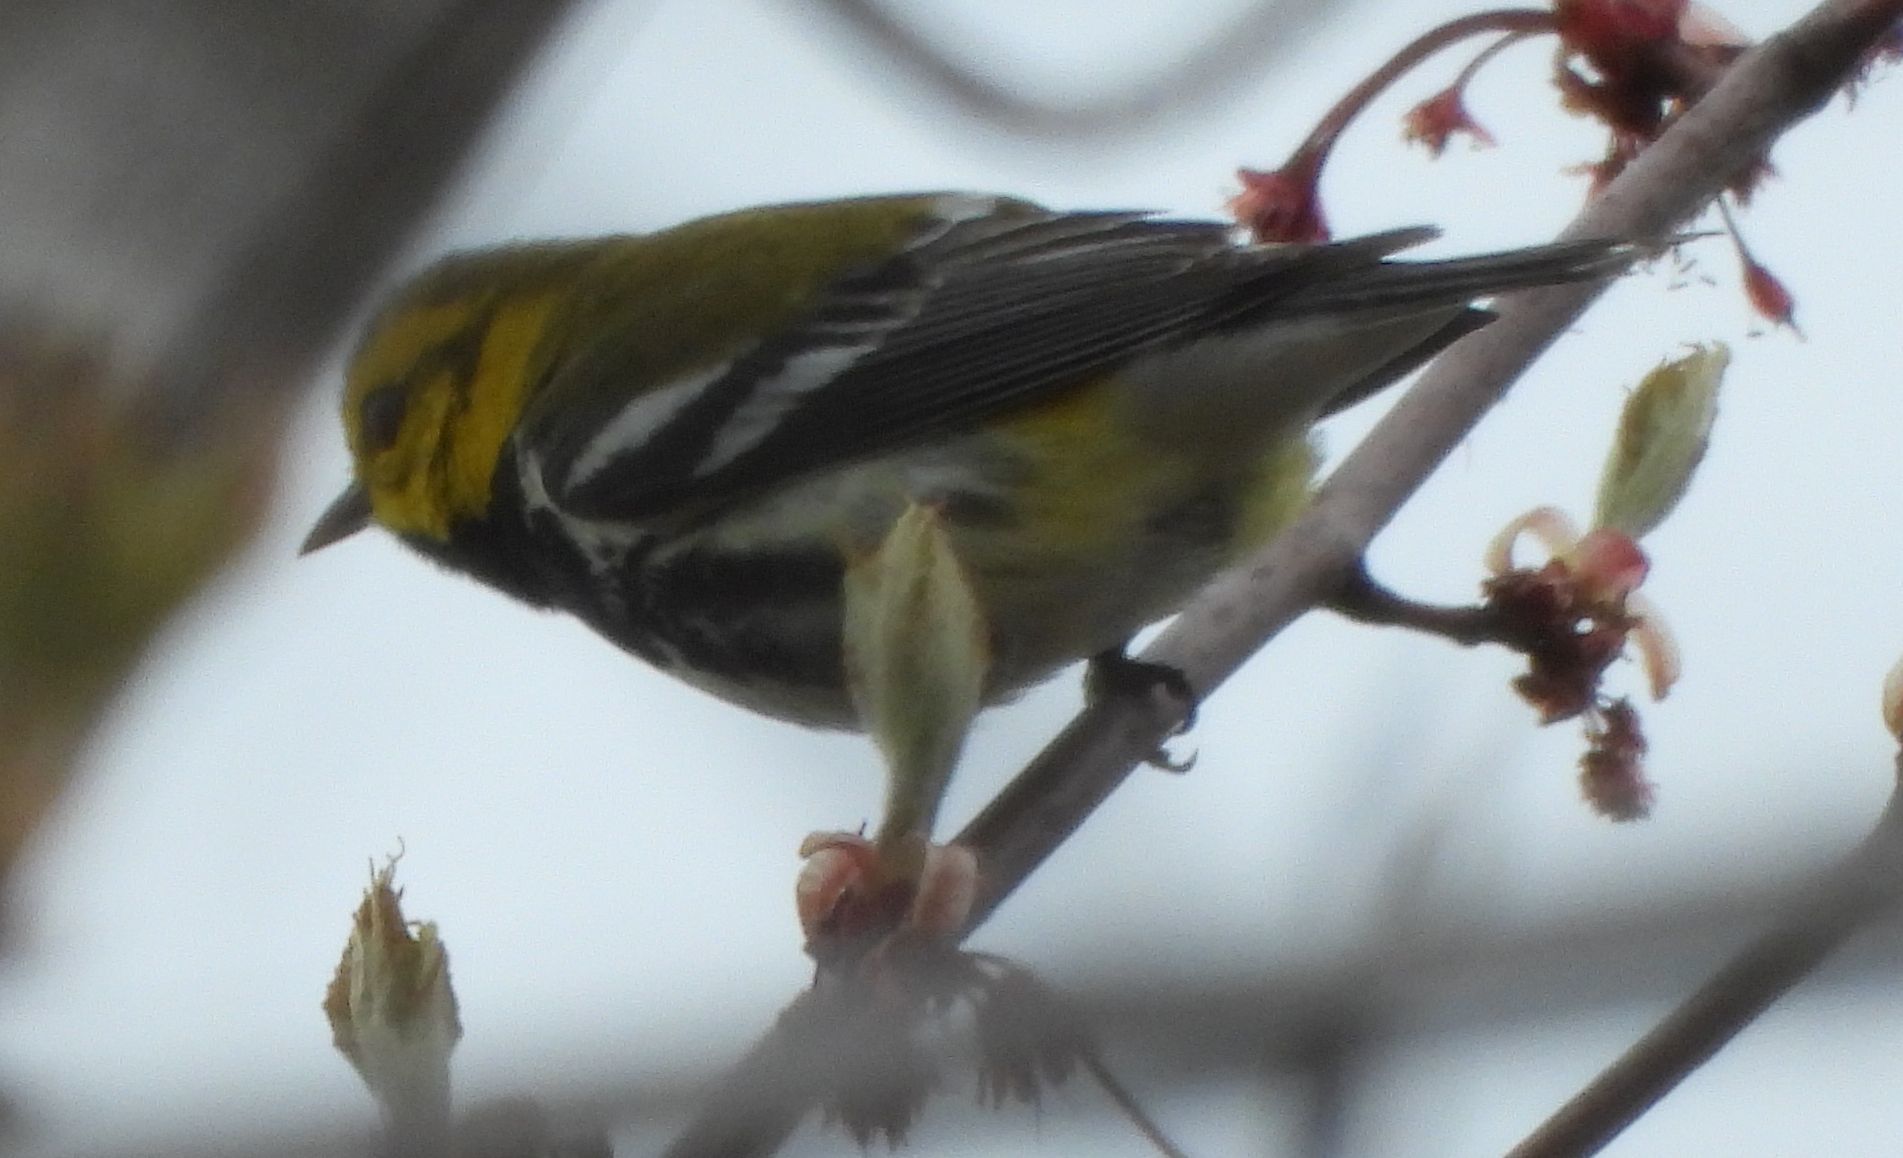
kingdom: Animalia
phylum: Chordata
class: Aves
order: Passeriformes
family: Parulidae
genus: Setophaga
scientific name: Setophaga virens
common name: Black-throated green warbler
